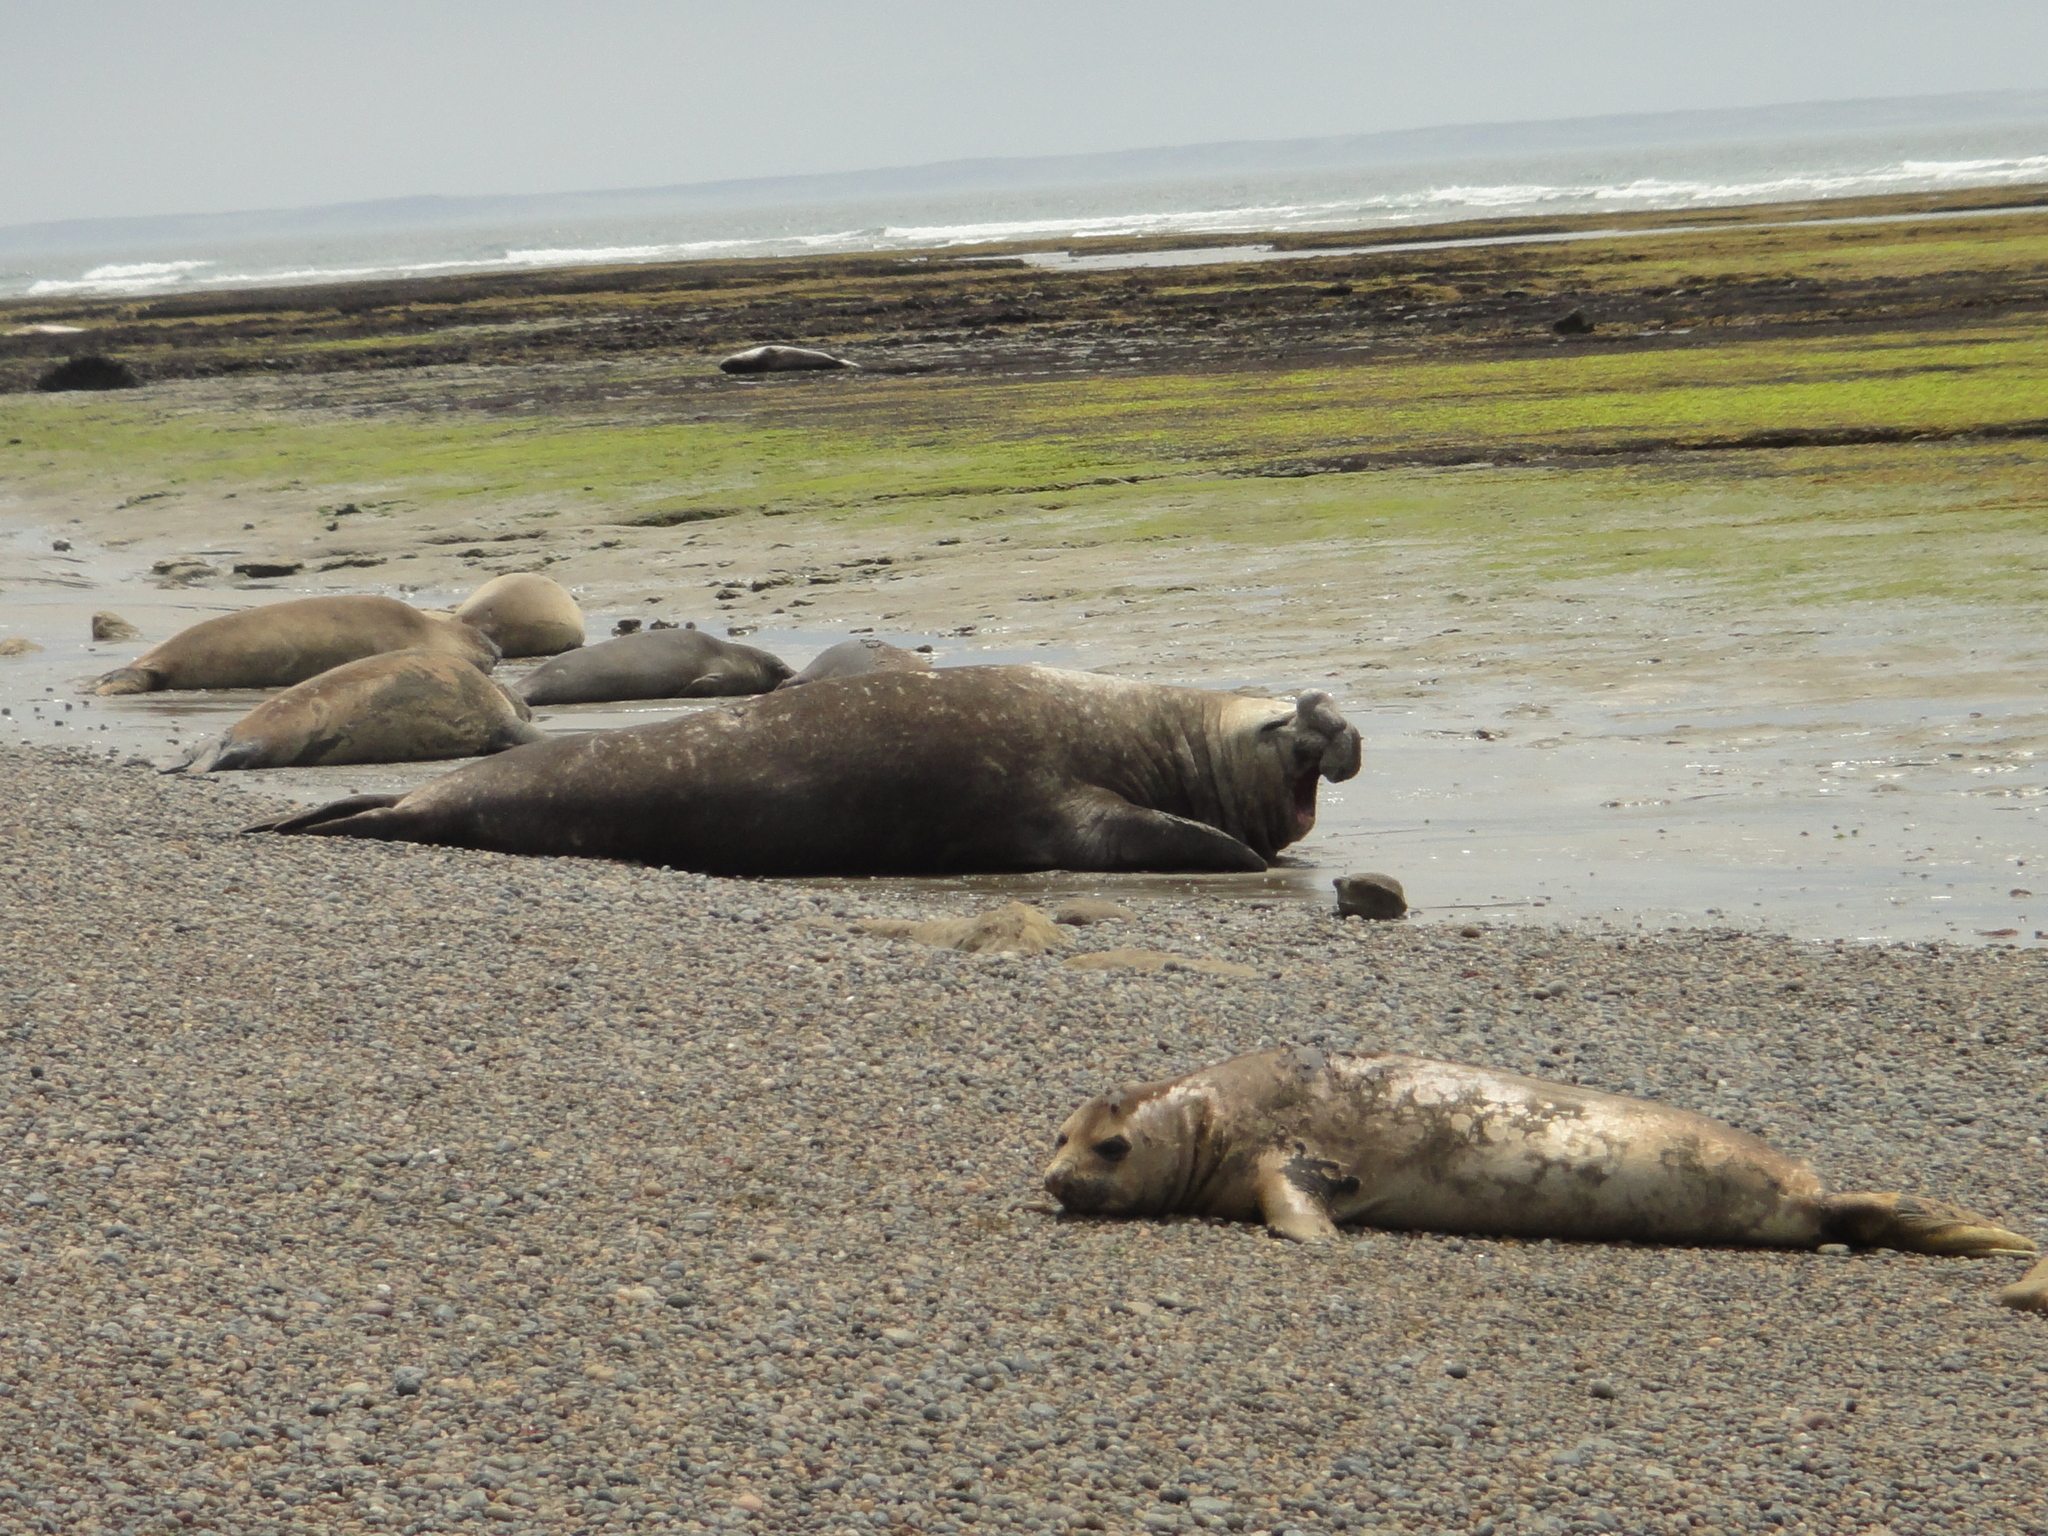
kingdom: Animalia
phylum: Chordata
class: Mammalia
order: Carnivora
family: Phocidae
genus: Mirounga
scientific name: Mirounga leonina
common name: Southern elephant seal
